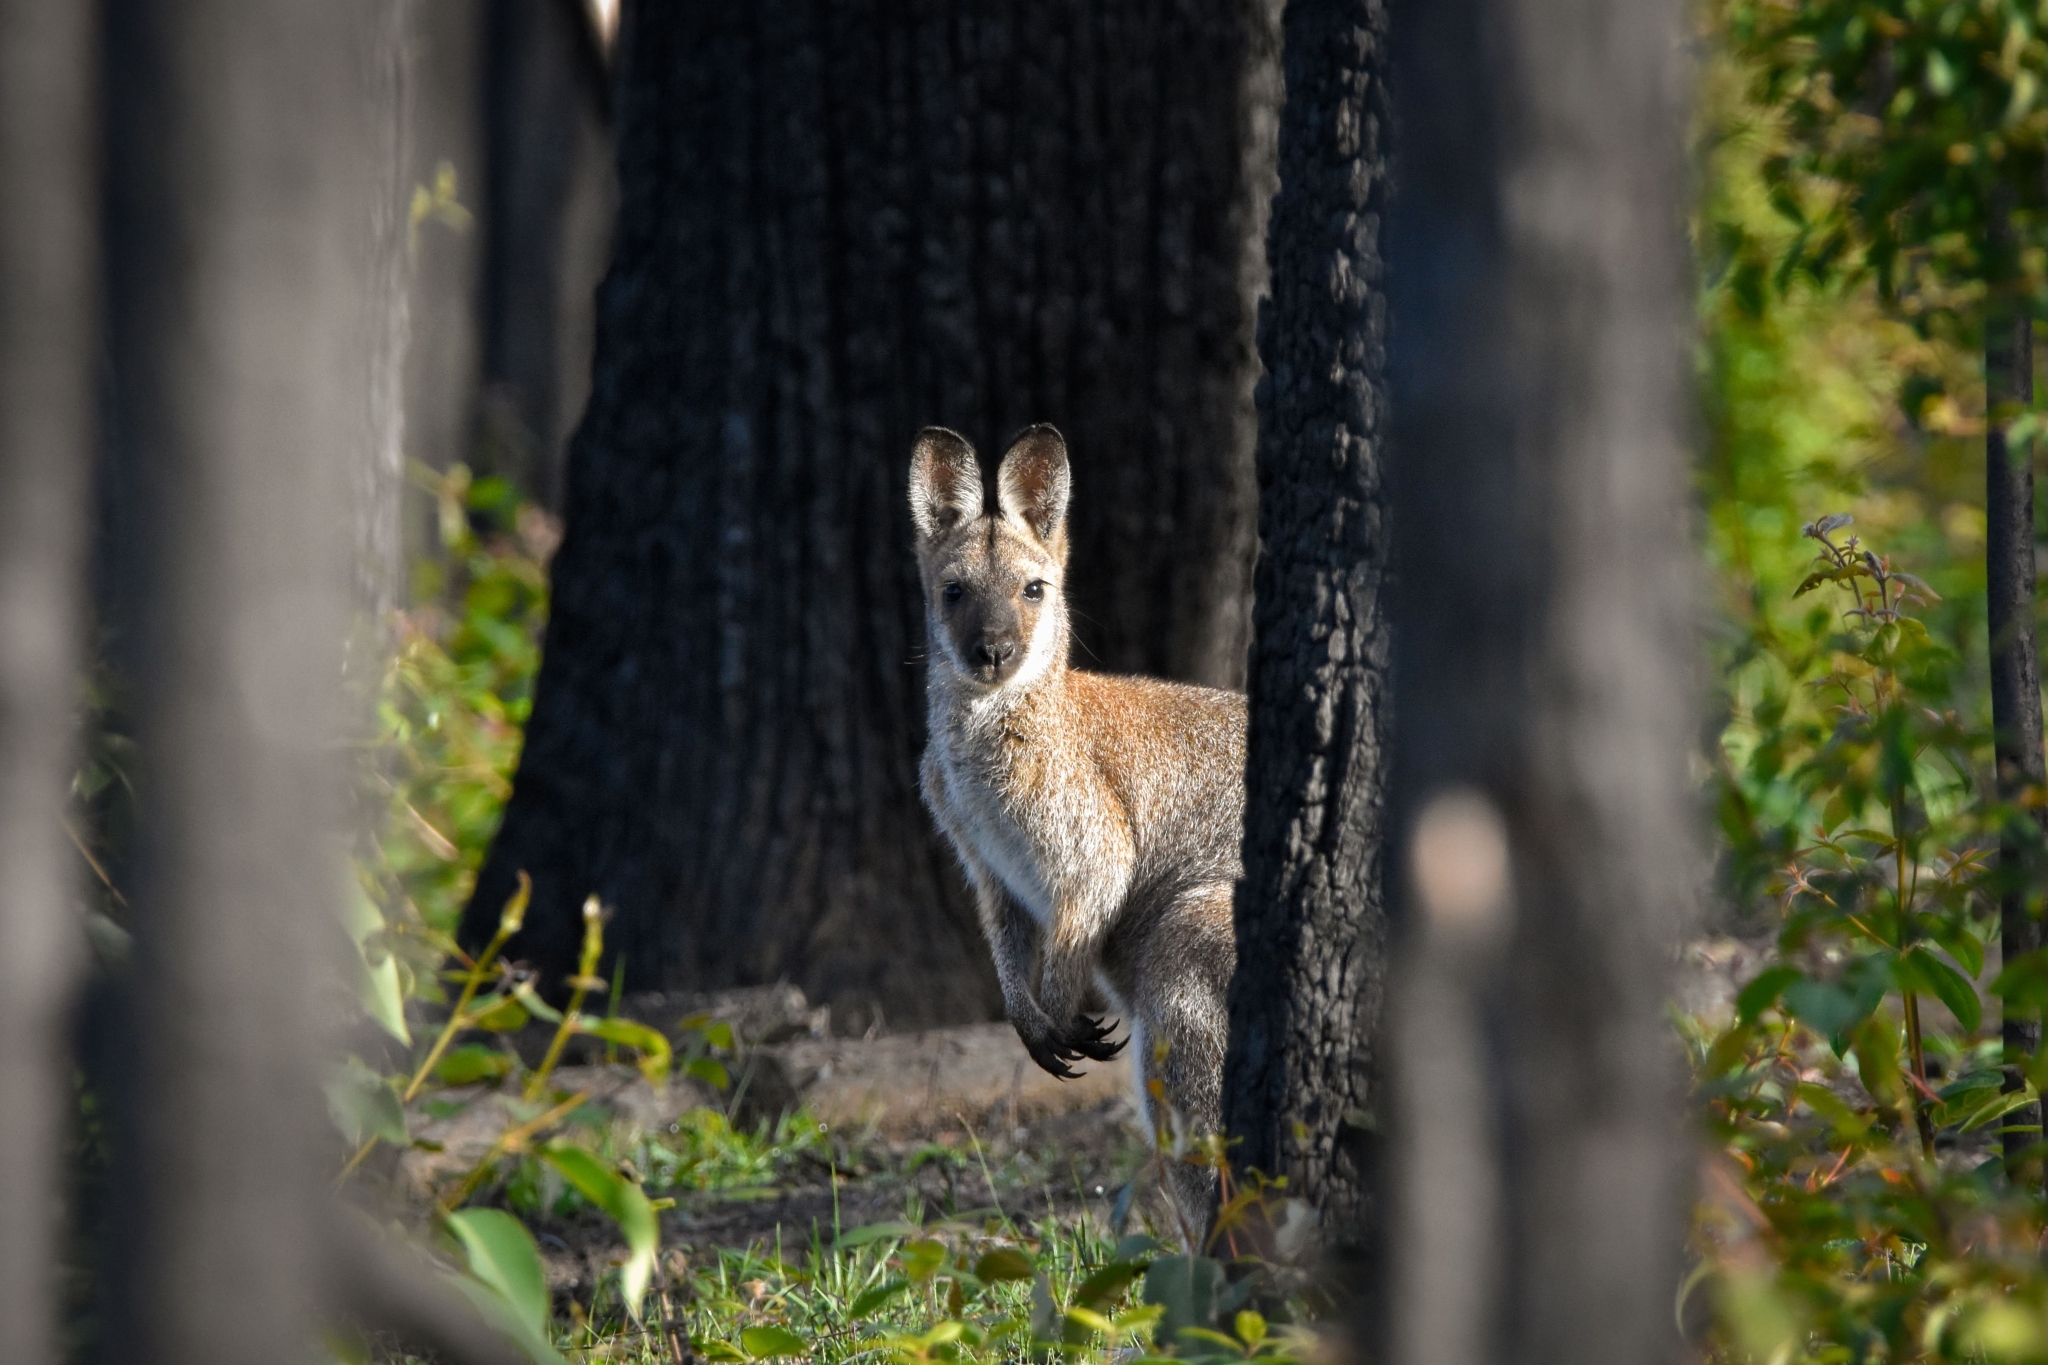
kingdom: Animalia
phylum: Chordata
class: Mammalia
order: Diprotodontia
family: Macropodidae
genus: Notamacropus
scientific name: Notamacropus rufogriseus
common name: Red-necked wallaby
